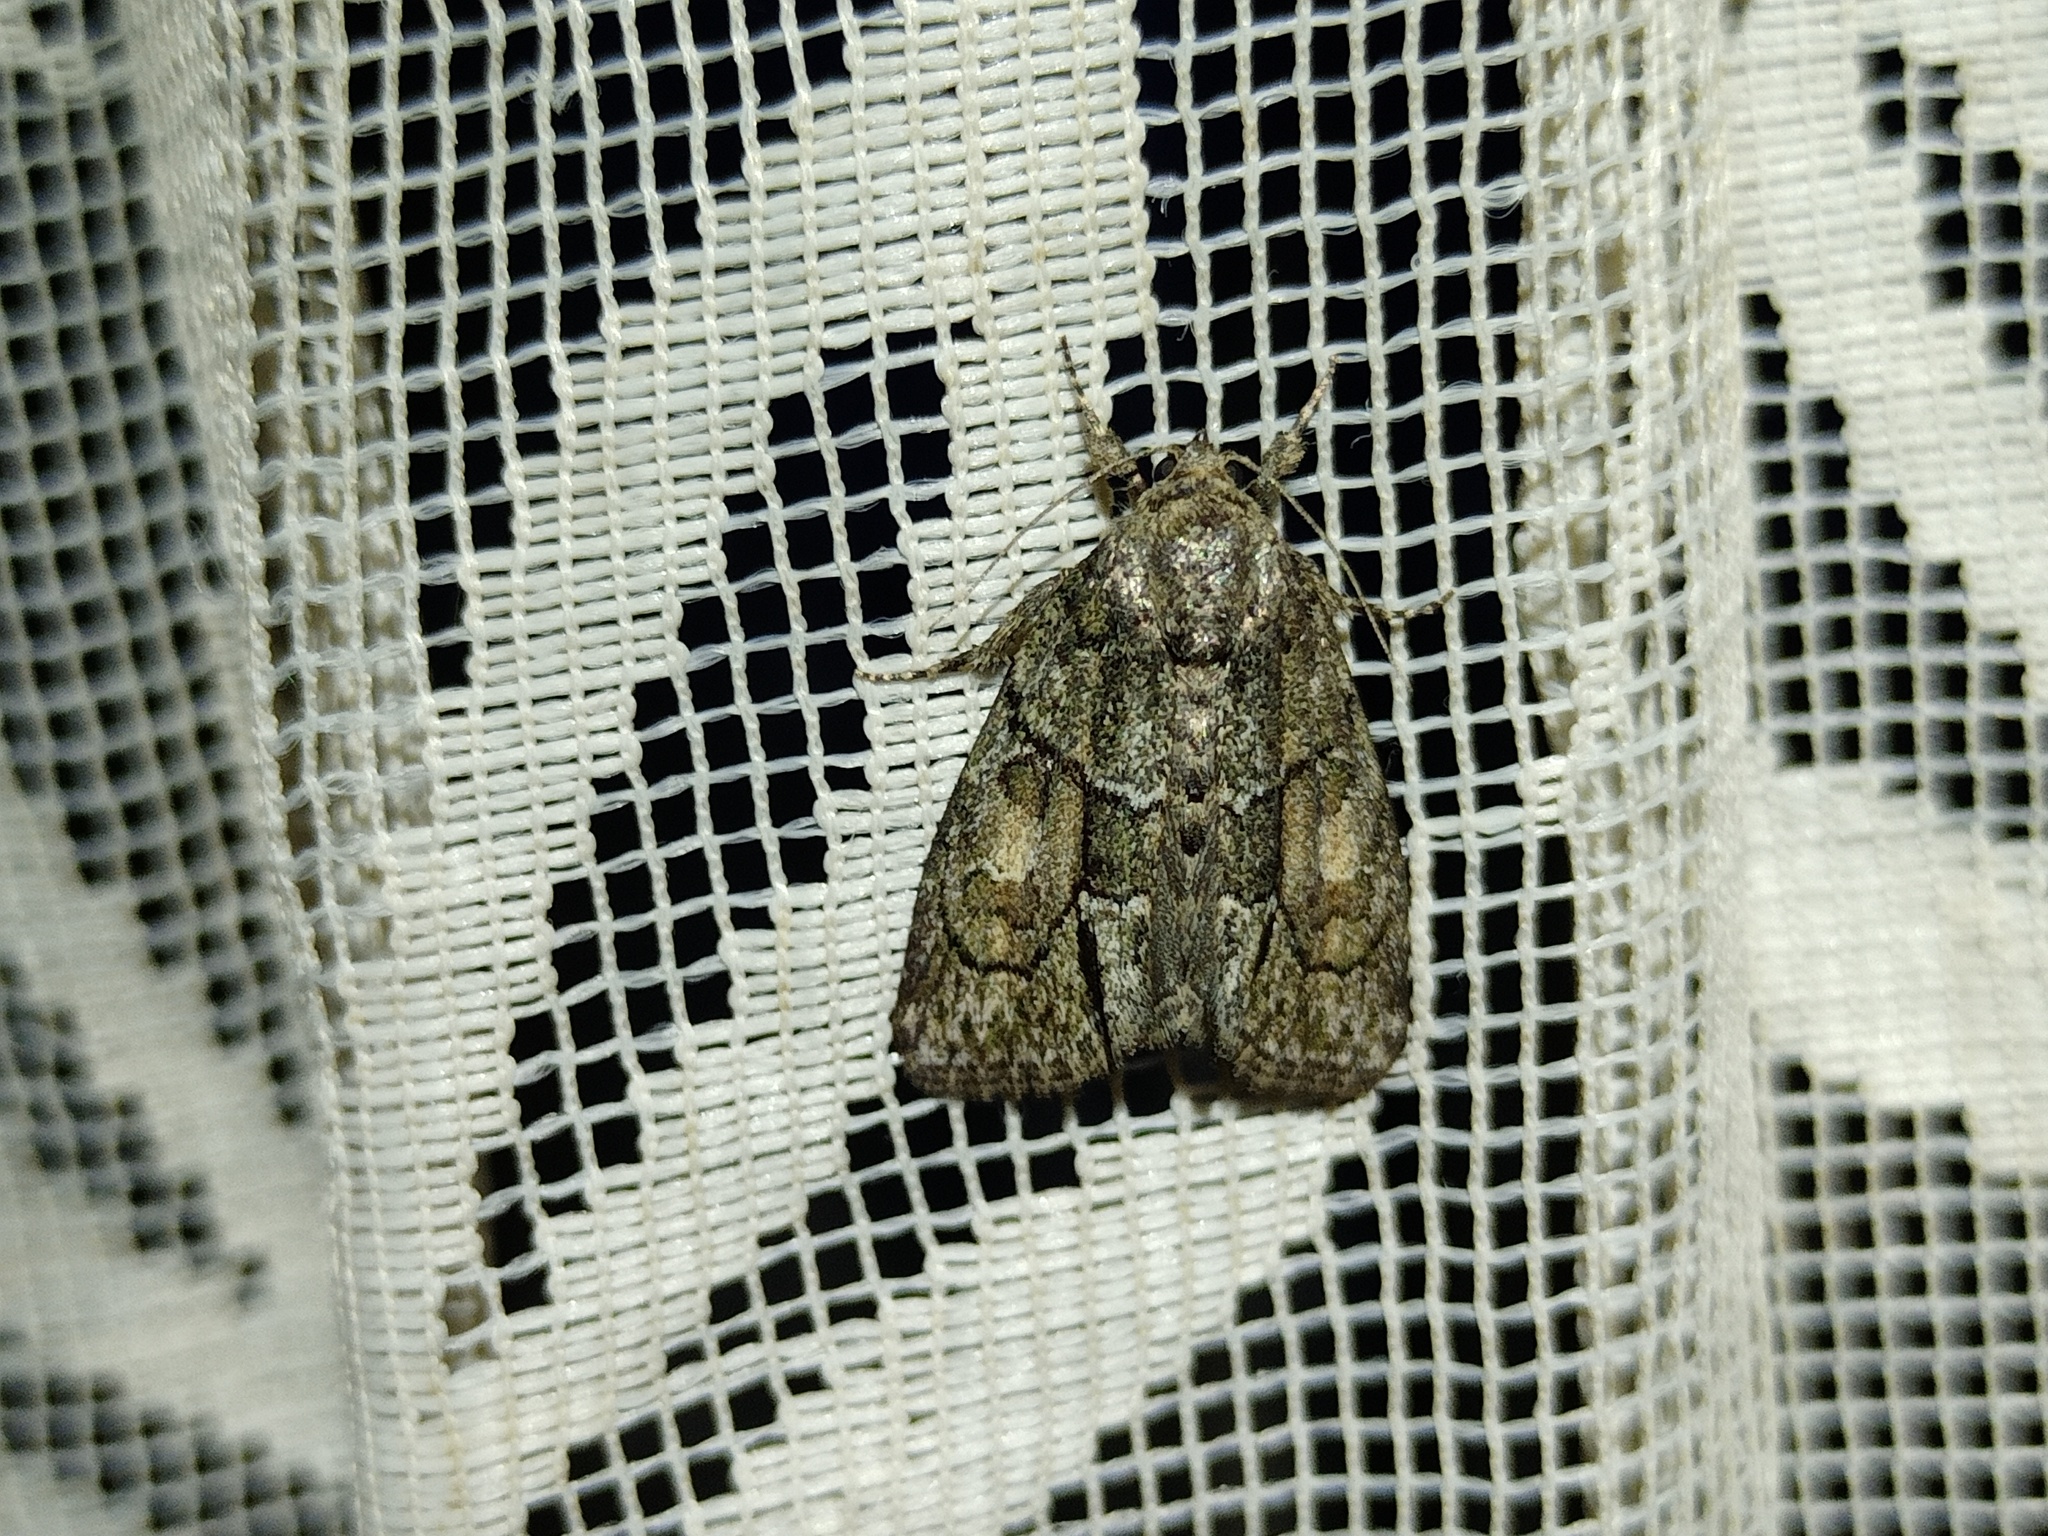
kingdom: Animalia
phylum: Arthropoda
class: Insecta
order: Lepidoptera
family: Noctuidae
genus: Cryphia
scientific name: Cryphia fraudatricula
